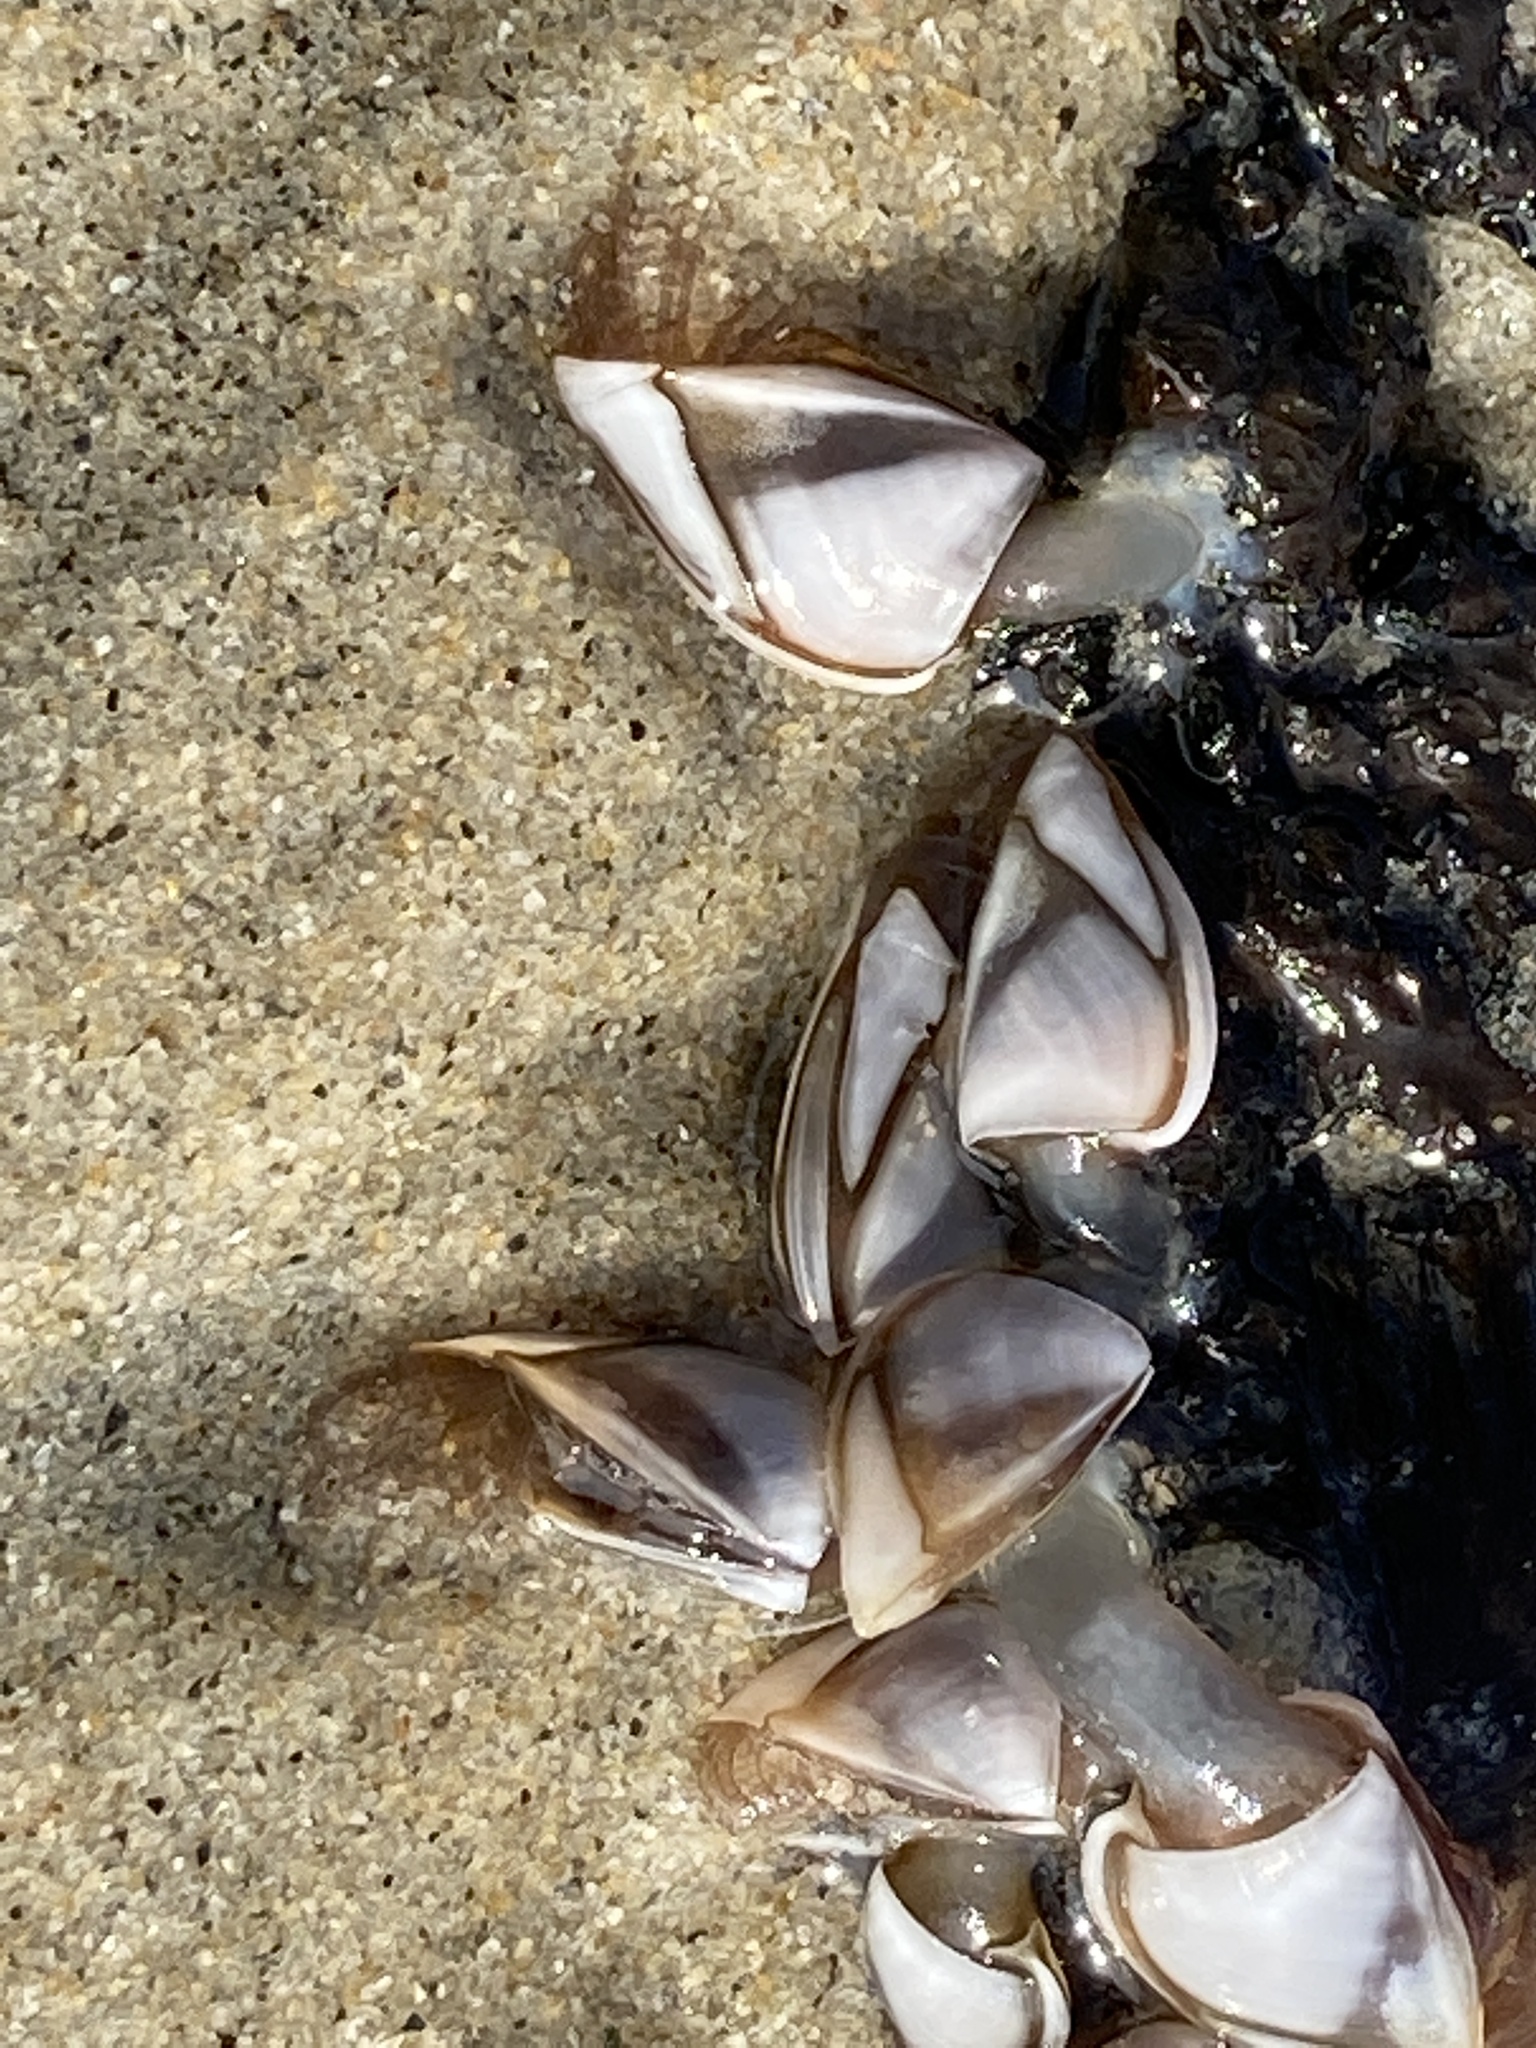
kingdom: Animalia
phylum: Arthropoda
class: Maxillopoda
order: Pedunculata
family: Lepadidae
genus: Lepas
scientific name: Lepas pacifica
